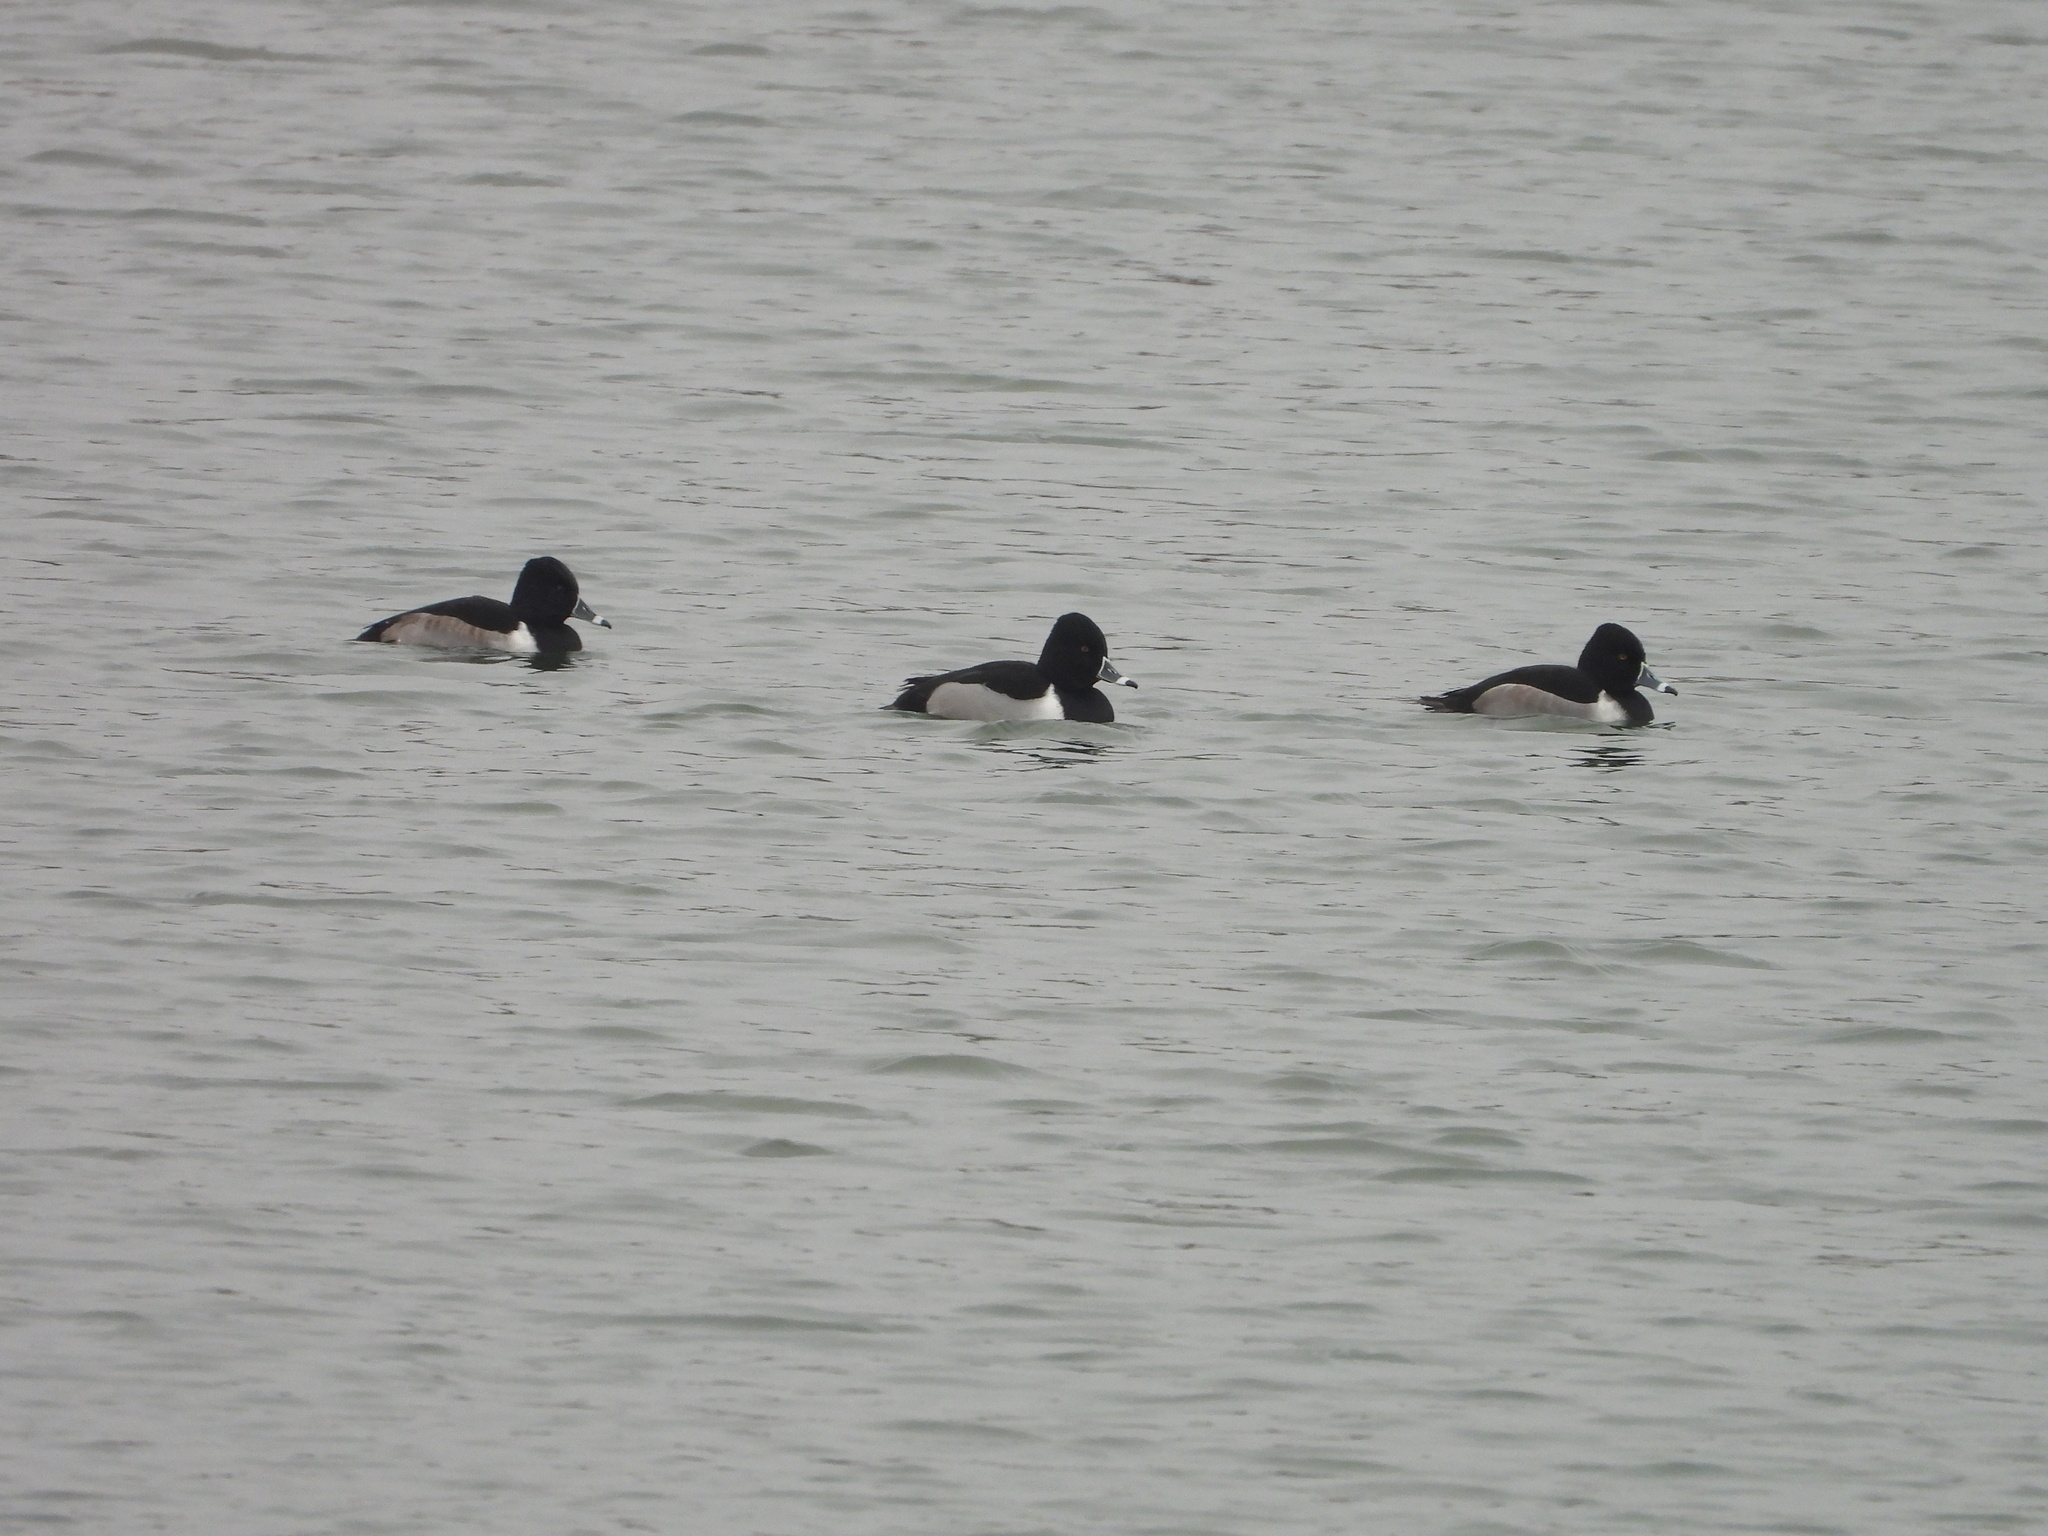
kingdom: Animalia
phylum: Chordata
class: Aves
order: Anseriformes
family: Anatidae
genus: Aythya
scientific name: Aythya collaris
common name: Ring-necked duck
